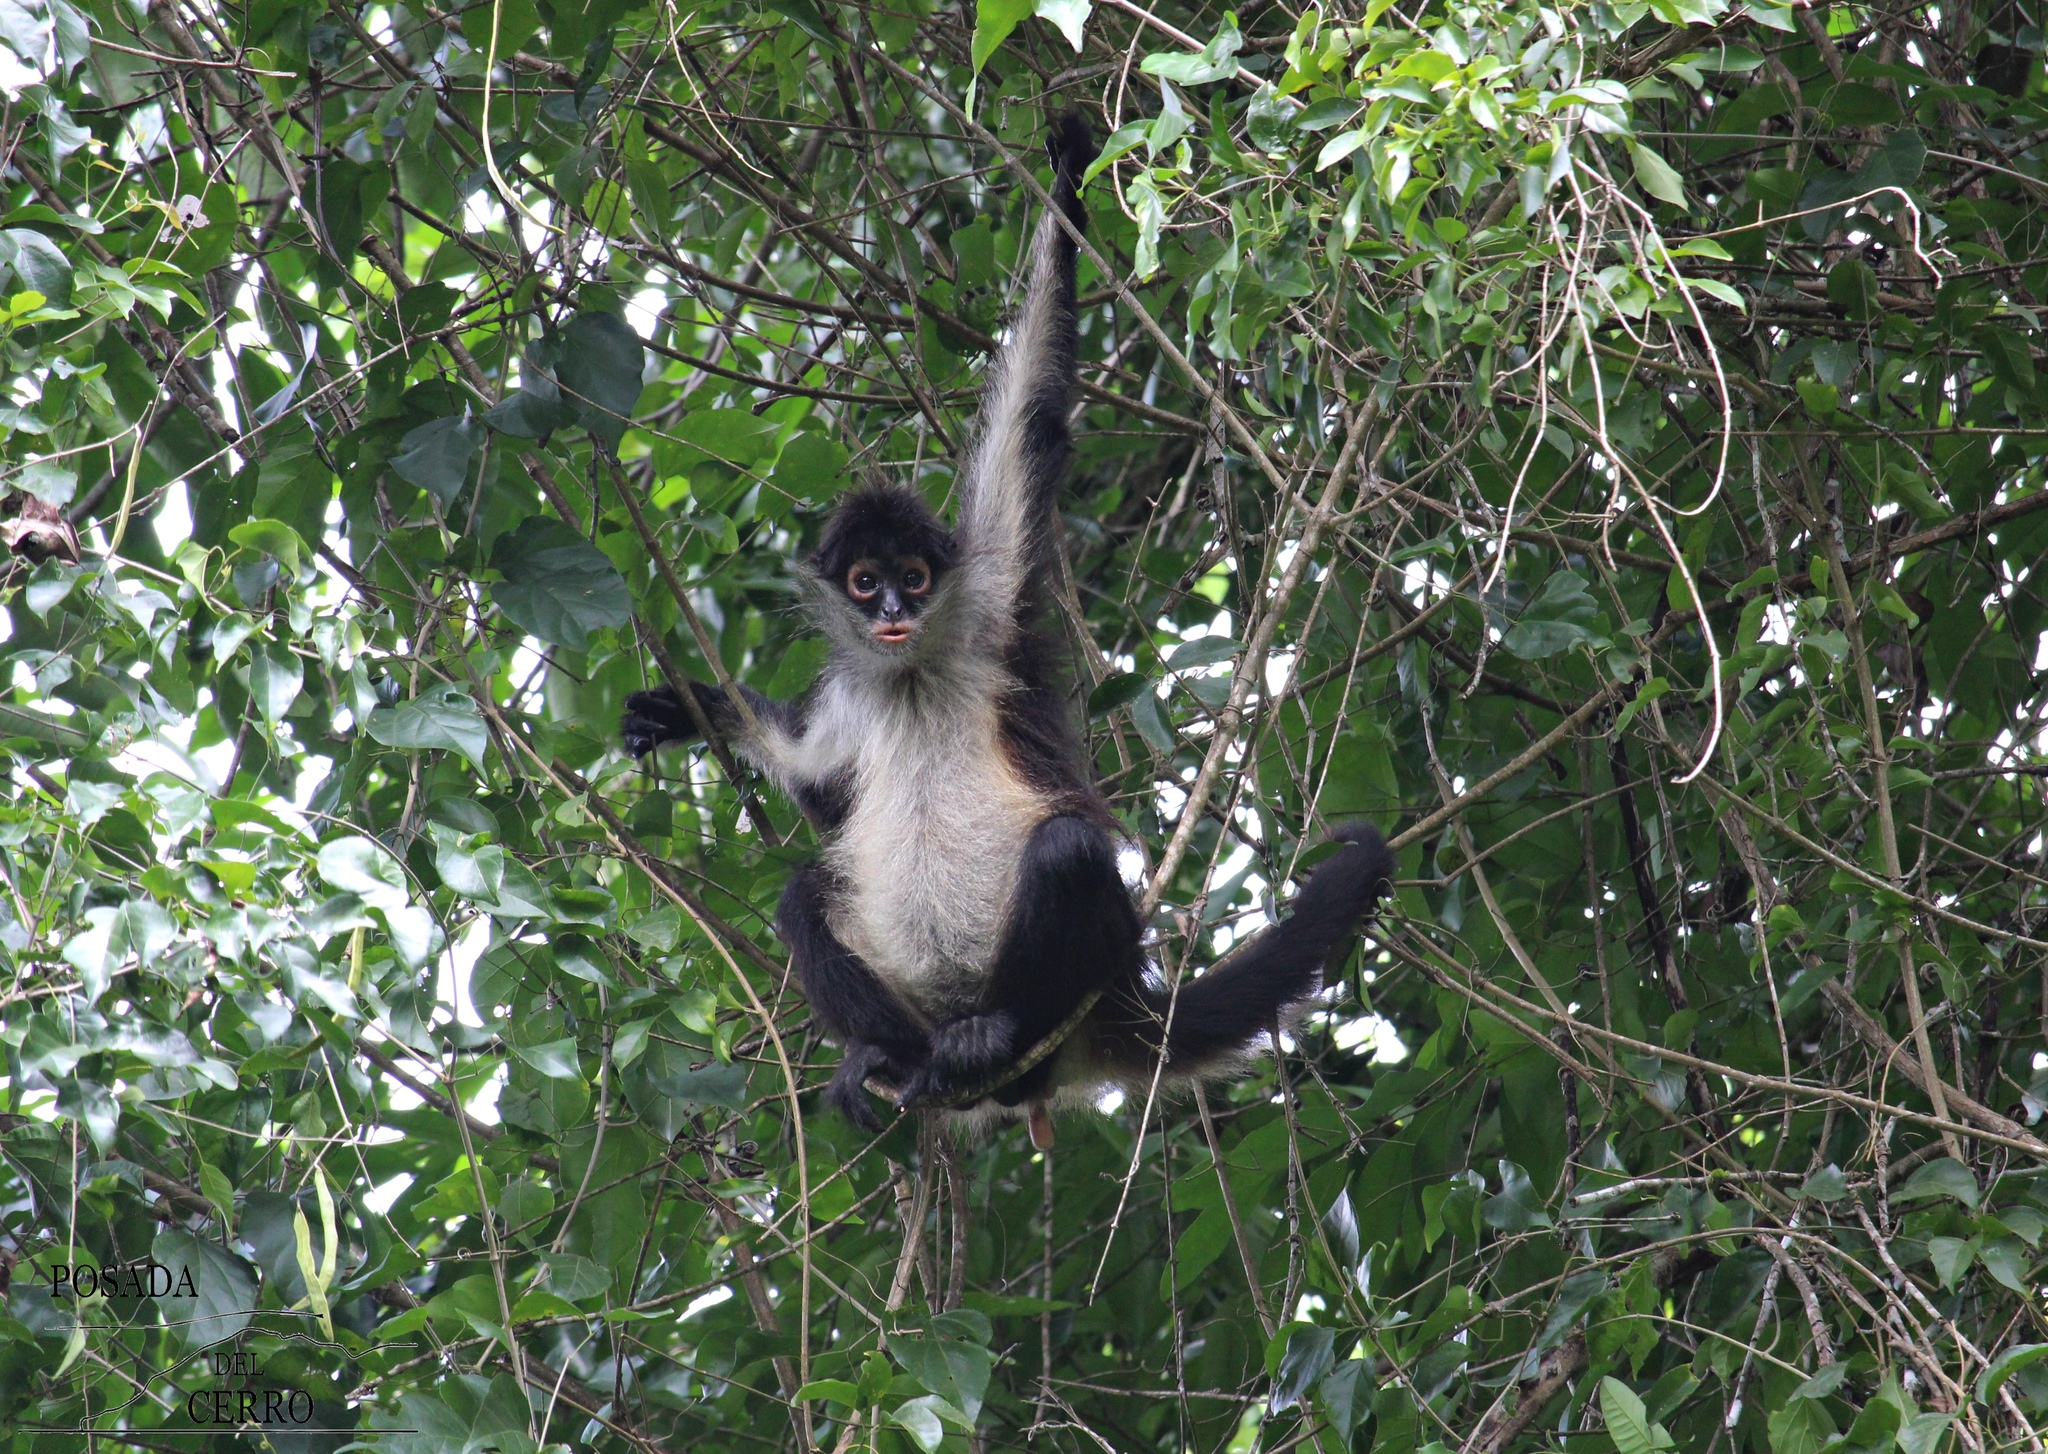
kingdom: Animalia
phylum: Chordata
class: Mammalia
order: Primates
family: Atelidae
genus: Ateles
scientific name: Ateles geoffroyi
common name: Black-handed spider monkey
